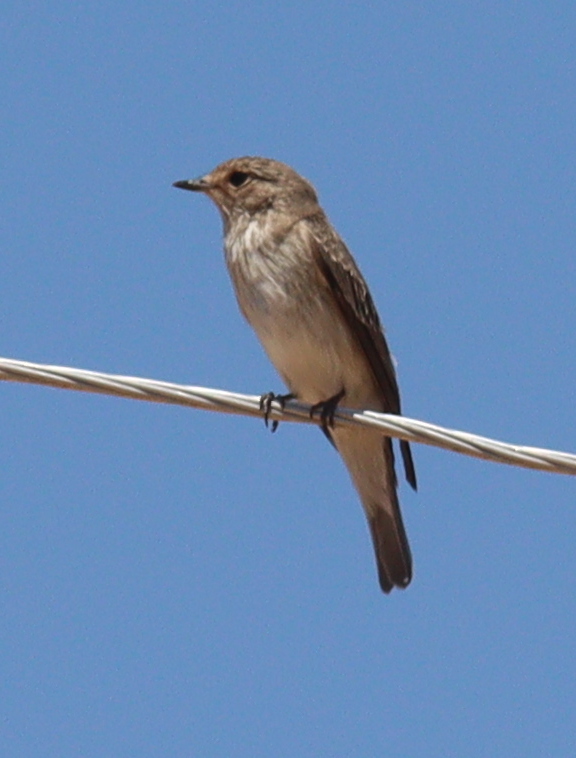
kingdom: Animalia
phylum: Chordata
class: Aves
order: Passeriformes
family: Muscicapidae
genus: Muscicapa
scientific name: Muscicapa striata
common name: Spotted flycatcher
